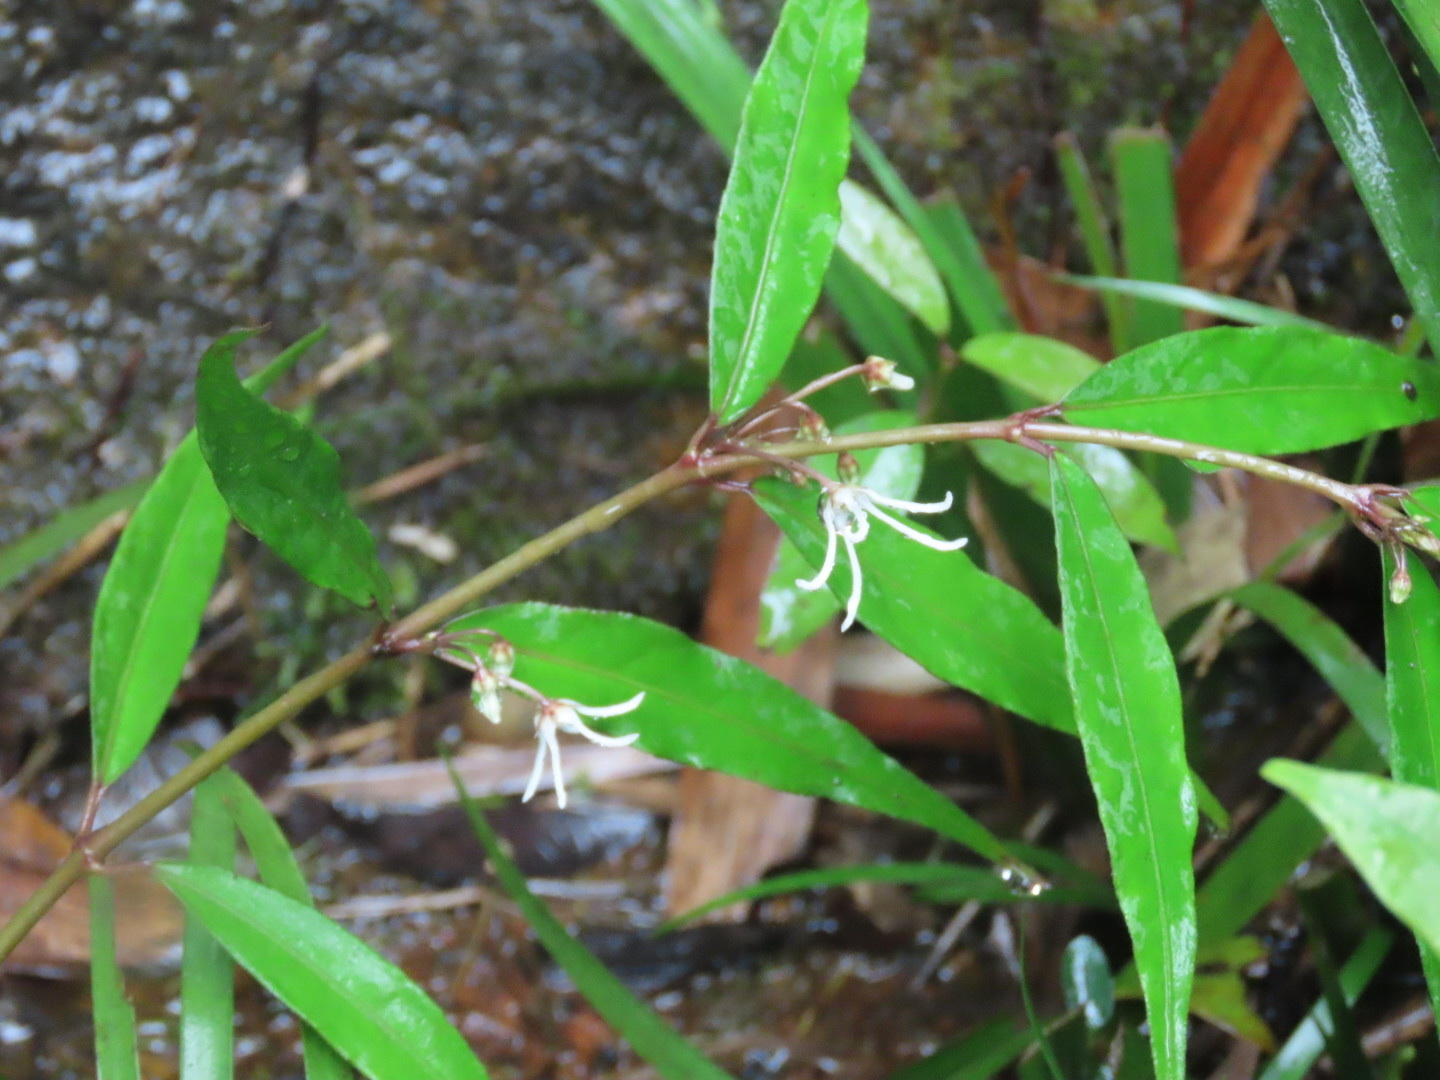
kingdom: Plantae
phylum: Tracheophyta
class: Magnoliopsida
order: Gentianales
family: Apocynaceae
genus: Pentasachme
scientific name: Pentasachme caudatum
